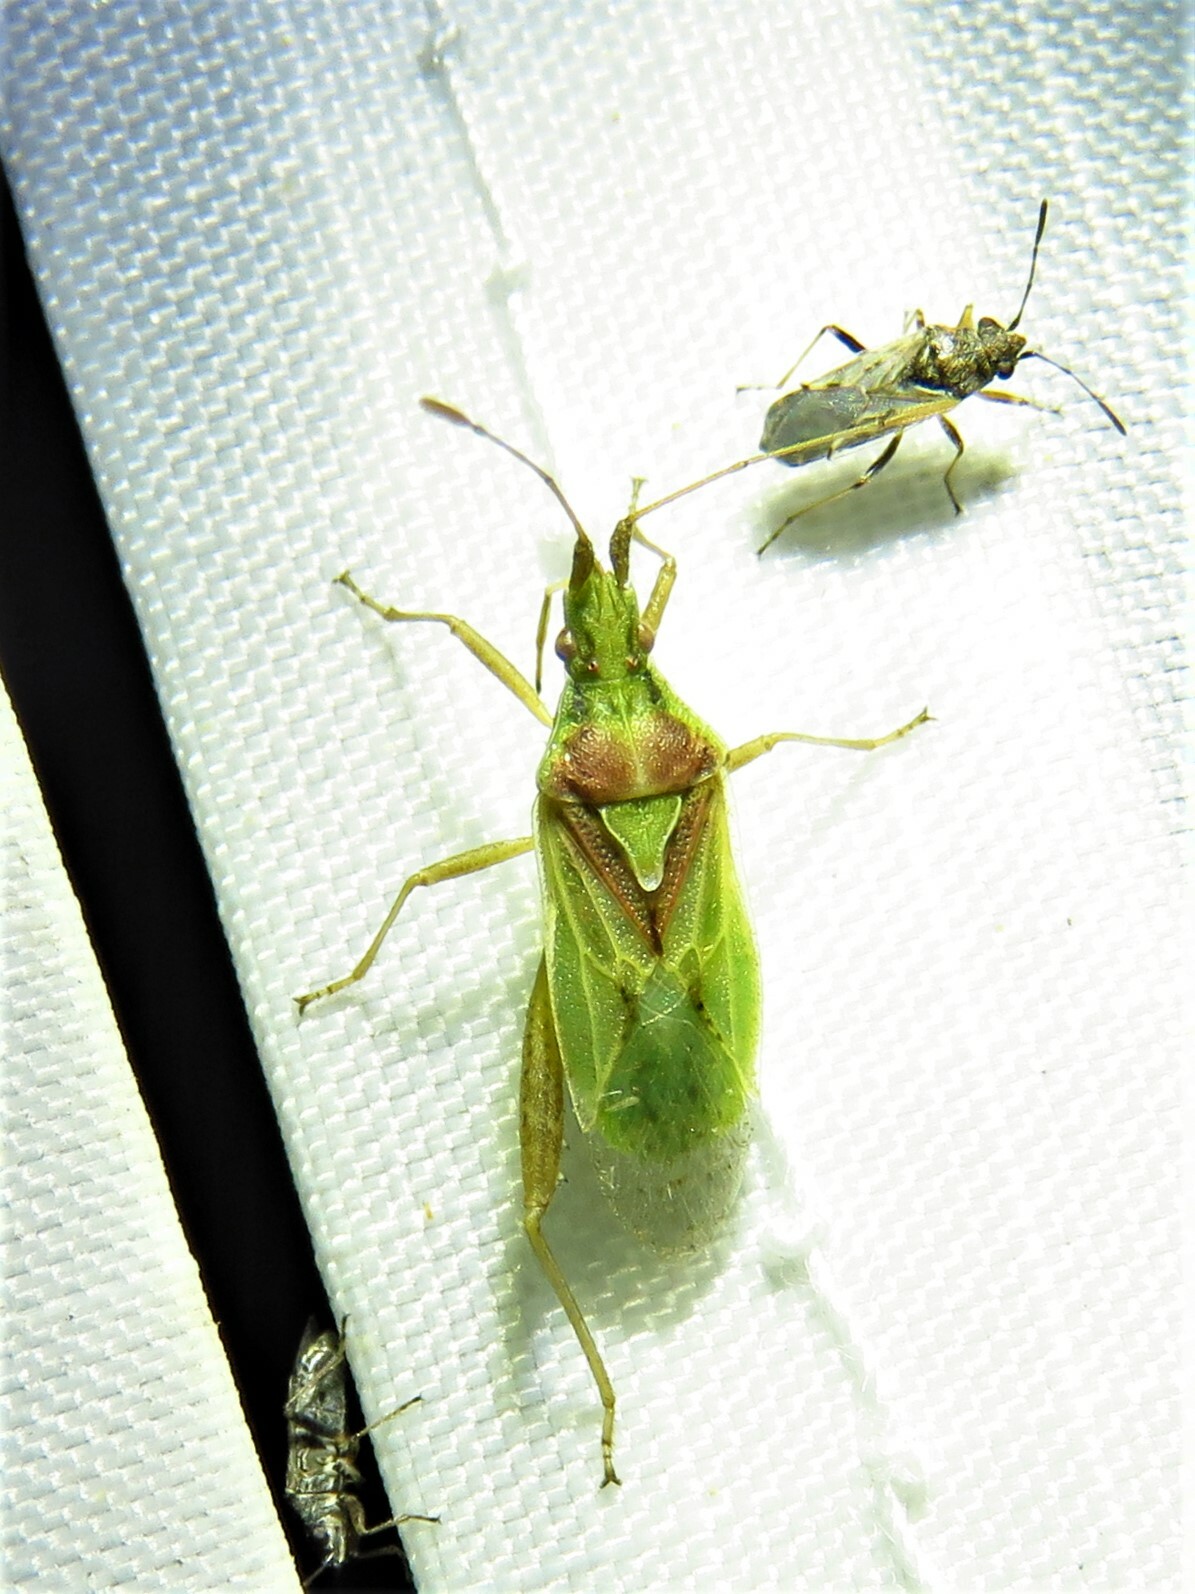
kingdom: Animalia
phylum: Arthropoda
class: Insecta
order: Hemiptera
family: Rhopalidae
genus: Harmostes
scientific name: Harmostes reflexulus
